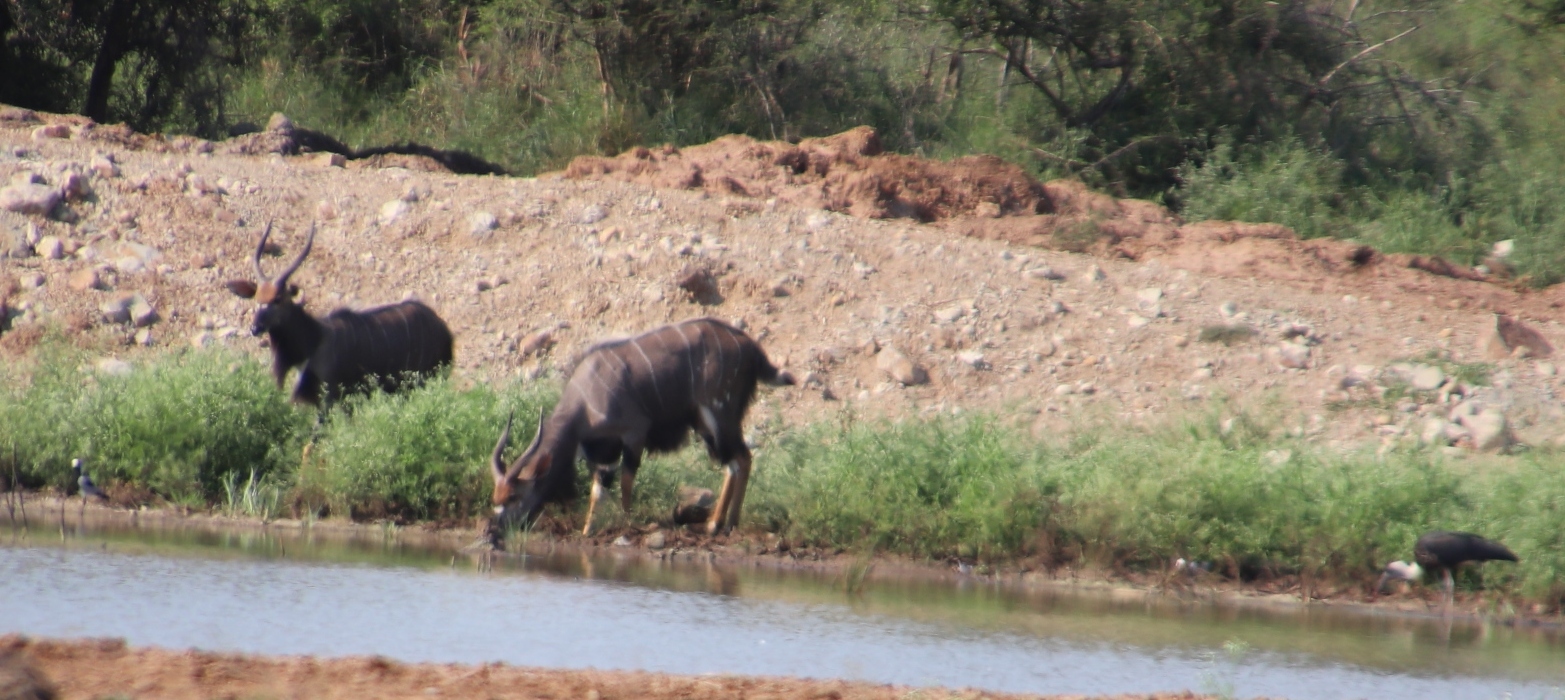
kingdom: Animalia
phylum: Chordata
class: Mammalia
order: Artiodactyla
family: Bovidae
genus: Tragelaphus
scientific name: Tragelaphus angasii
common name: Nyala
